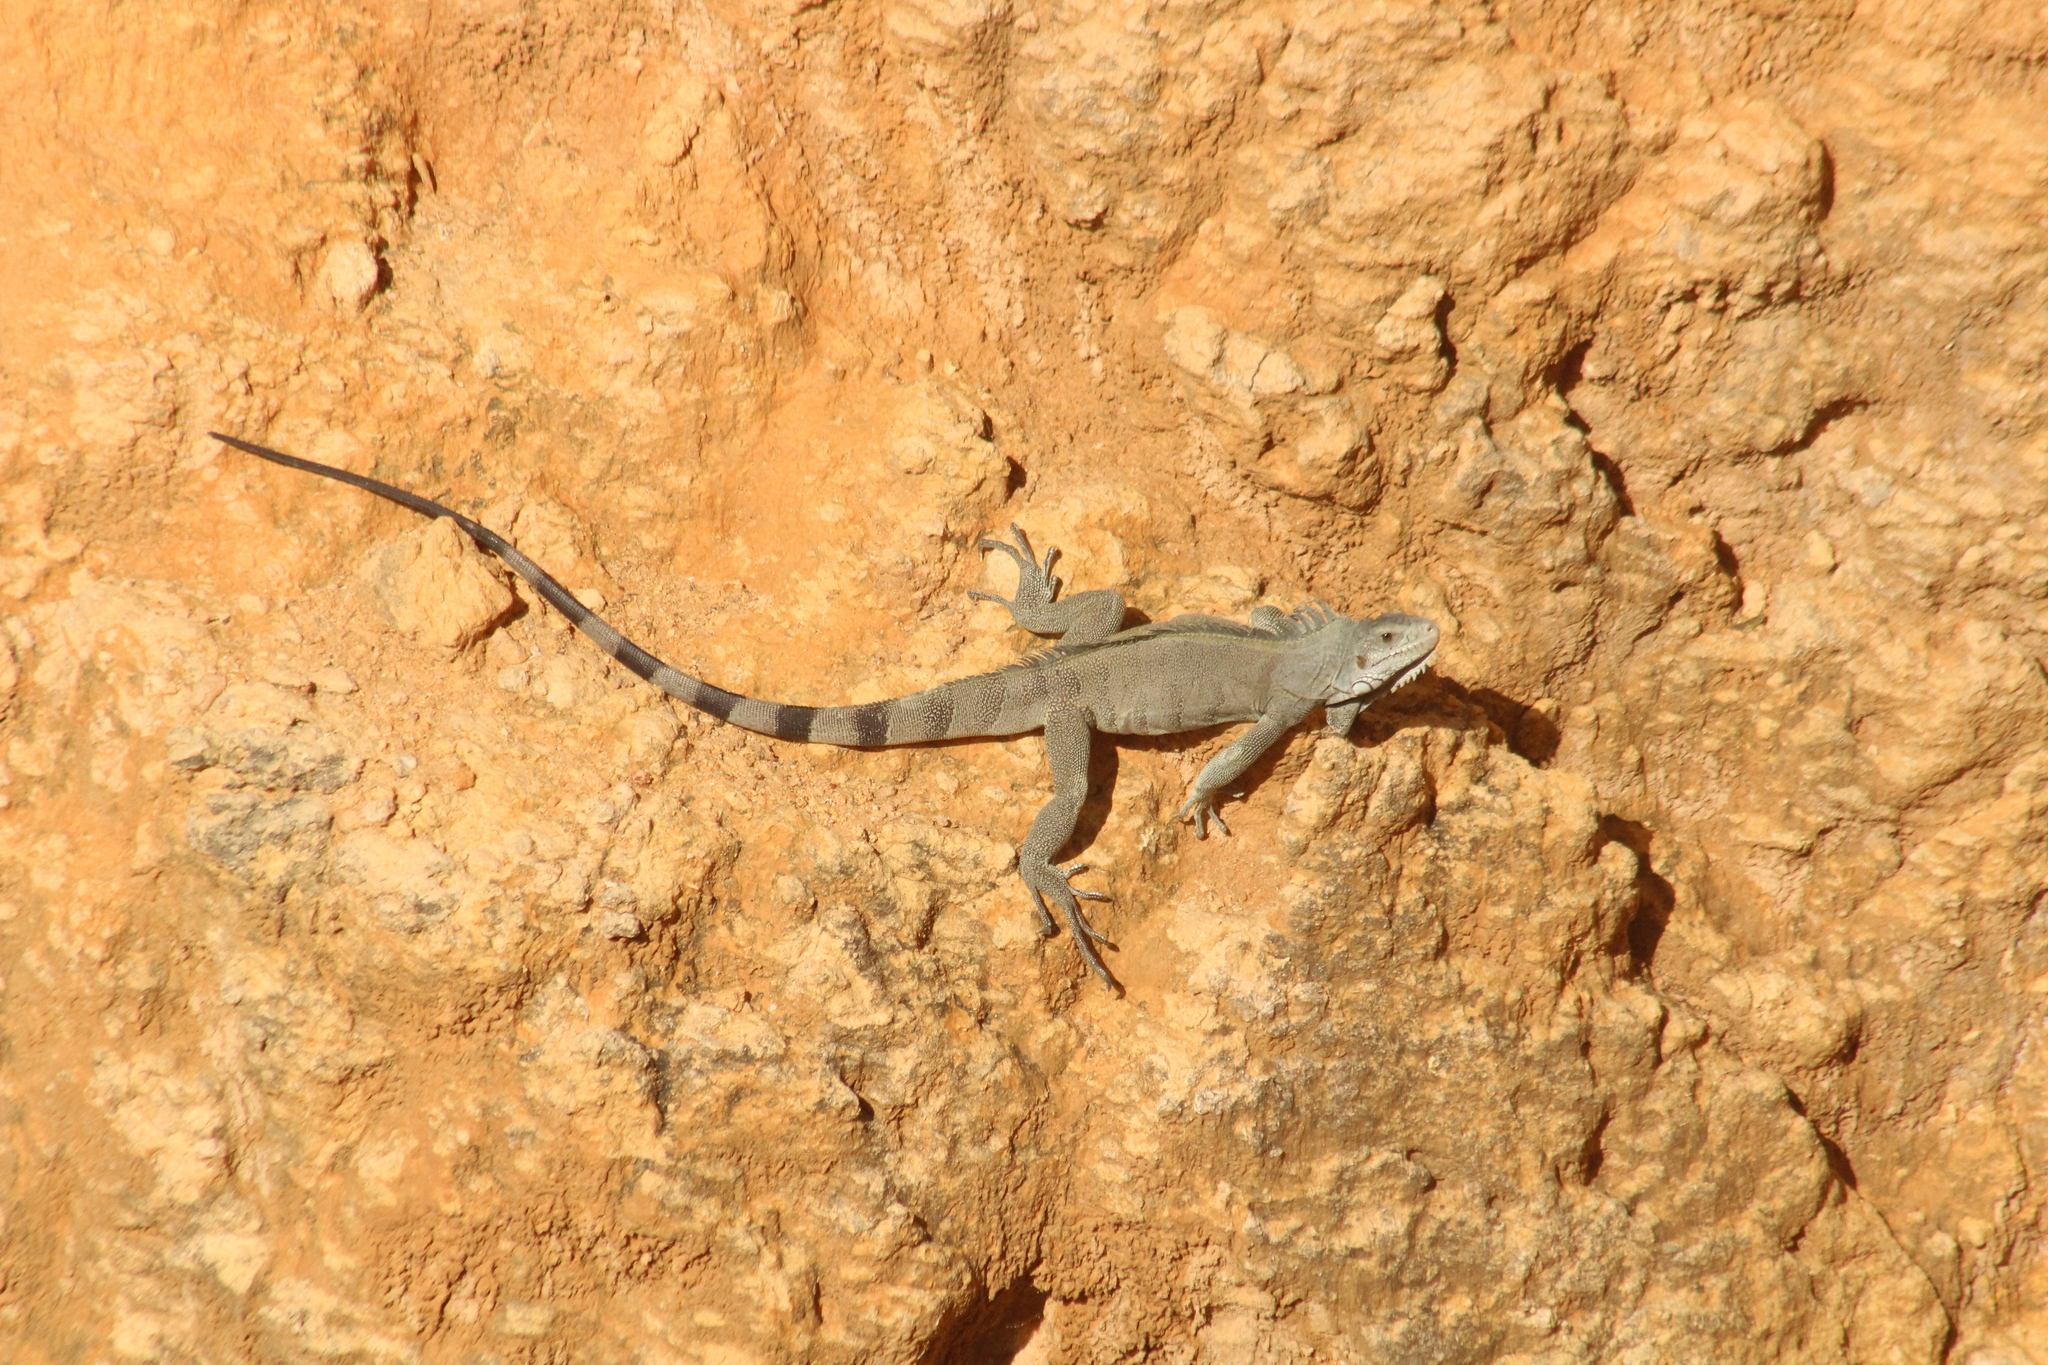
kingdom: Animalia
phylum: Chordata
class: Squamata
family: Iguanidae
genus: Iguana
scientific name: Iguana iguana
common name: Green iguana
